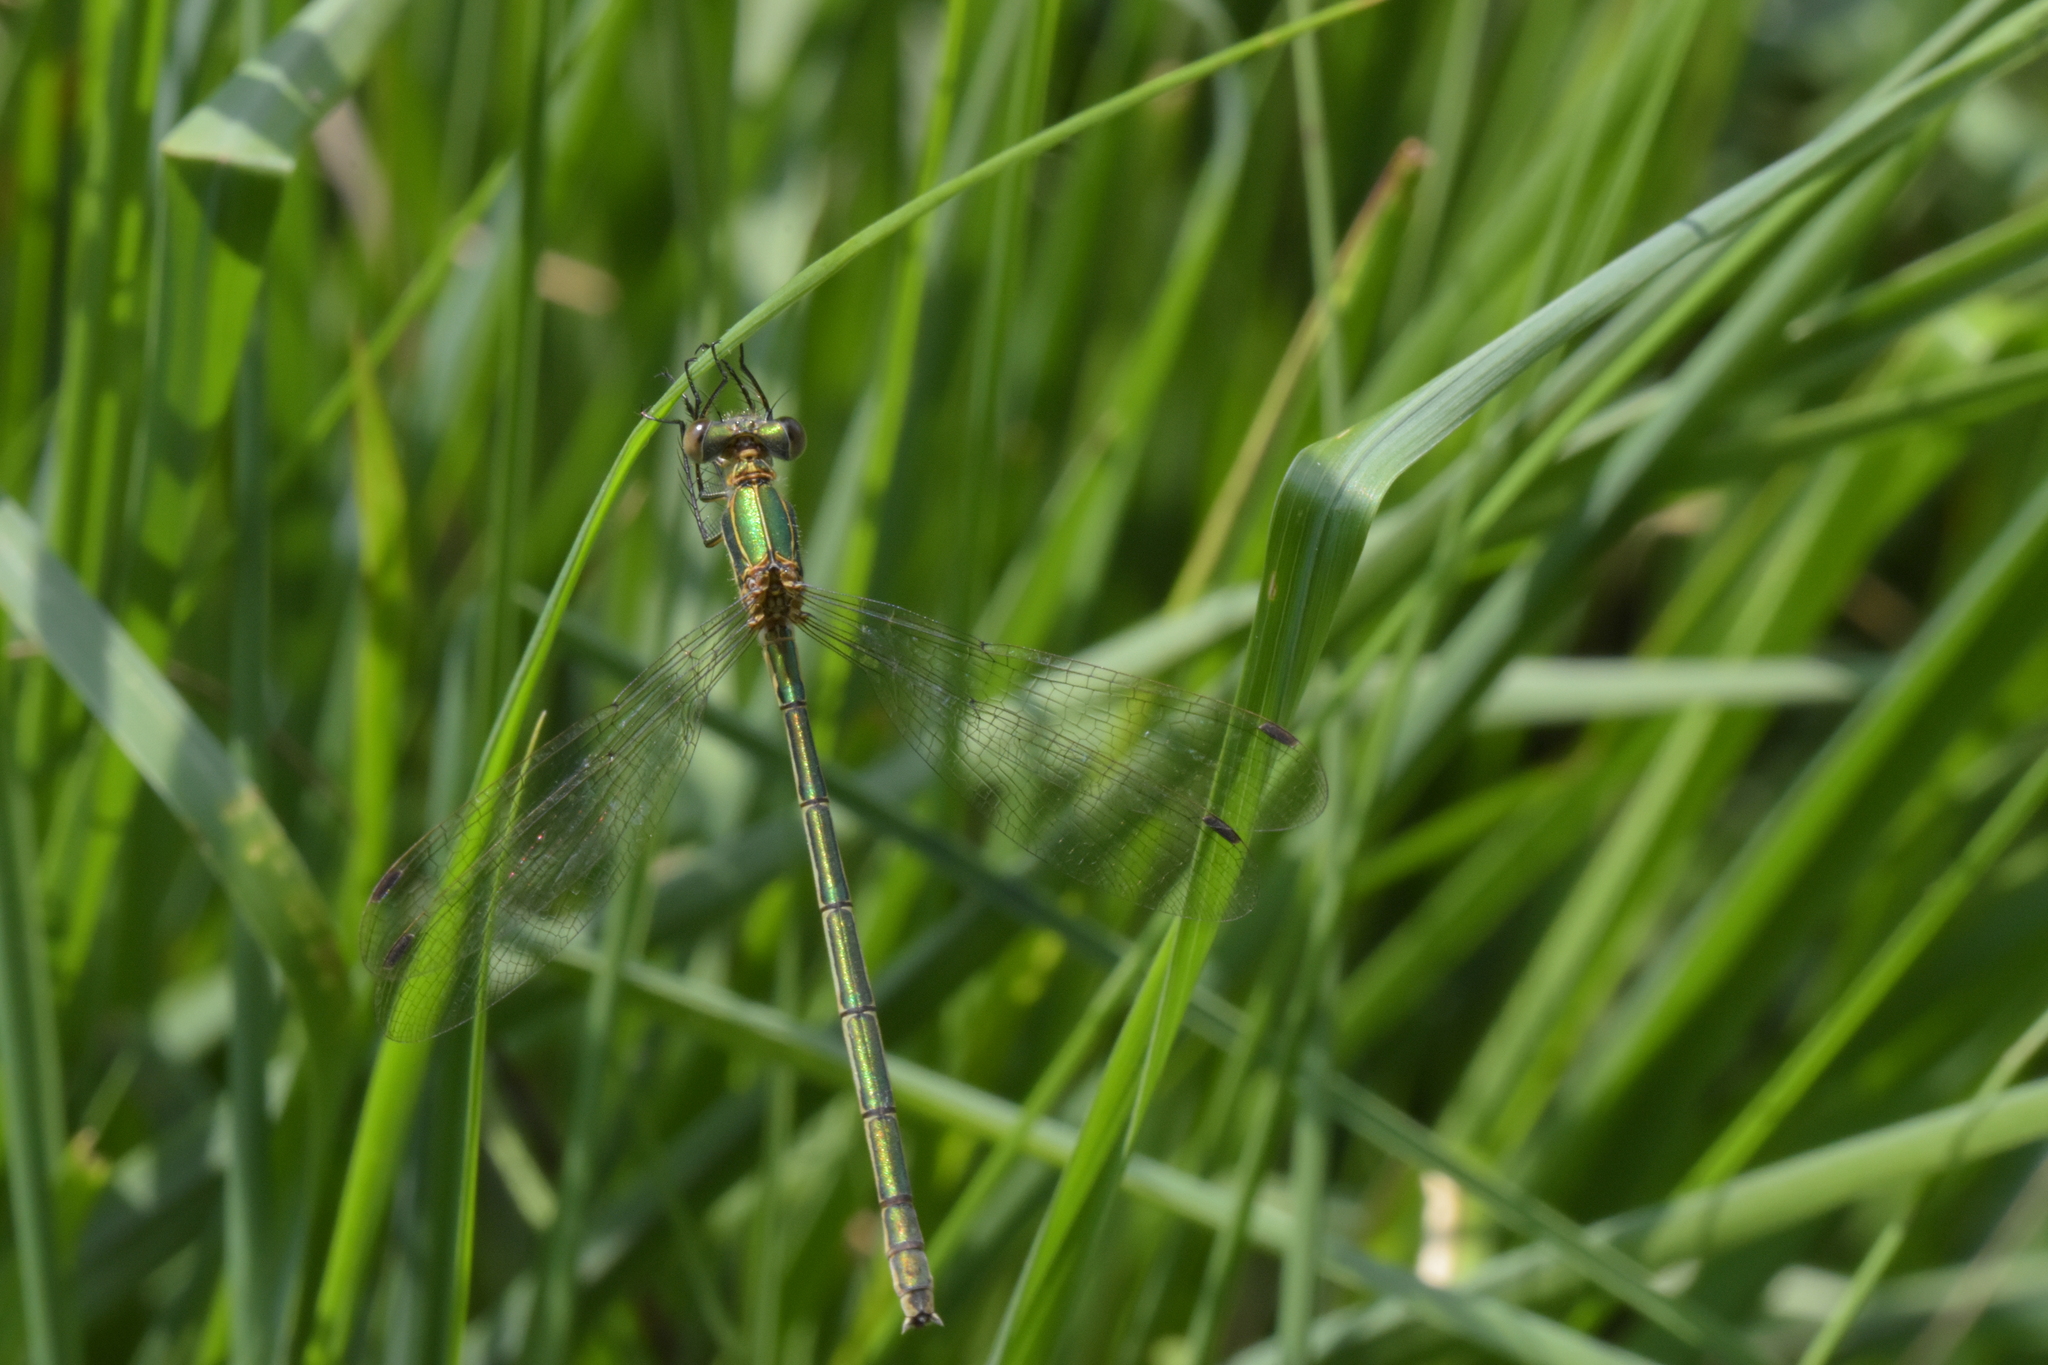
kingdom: Animalia
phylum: Arthropoda
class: Insecta
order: Odonata
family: Lestidae
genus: Lestes
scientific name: Lestes sponsa
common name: Common spreadwing
